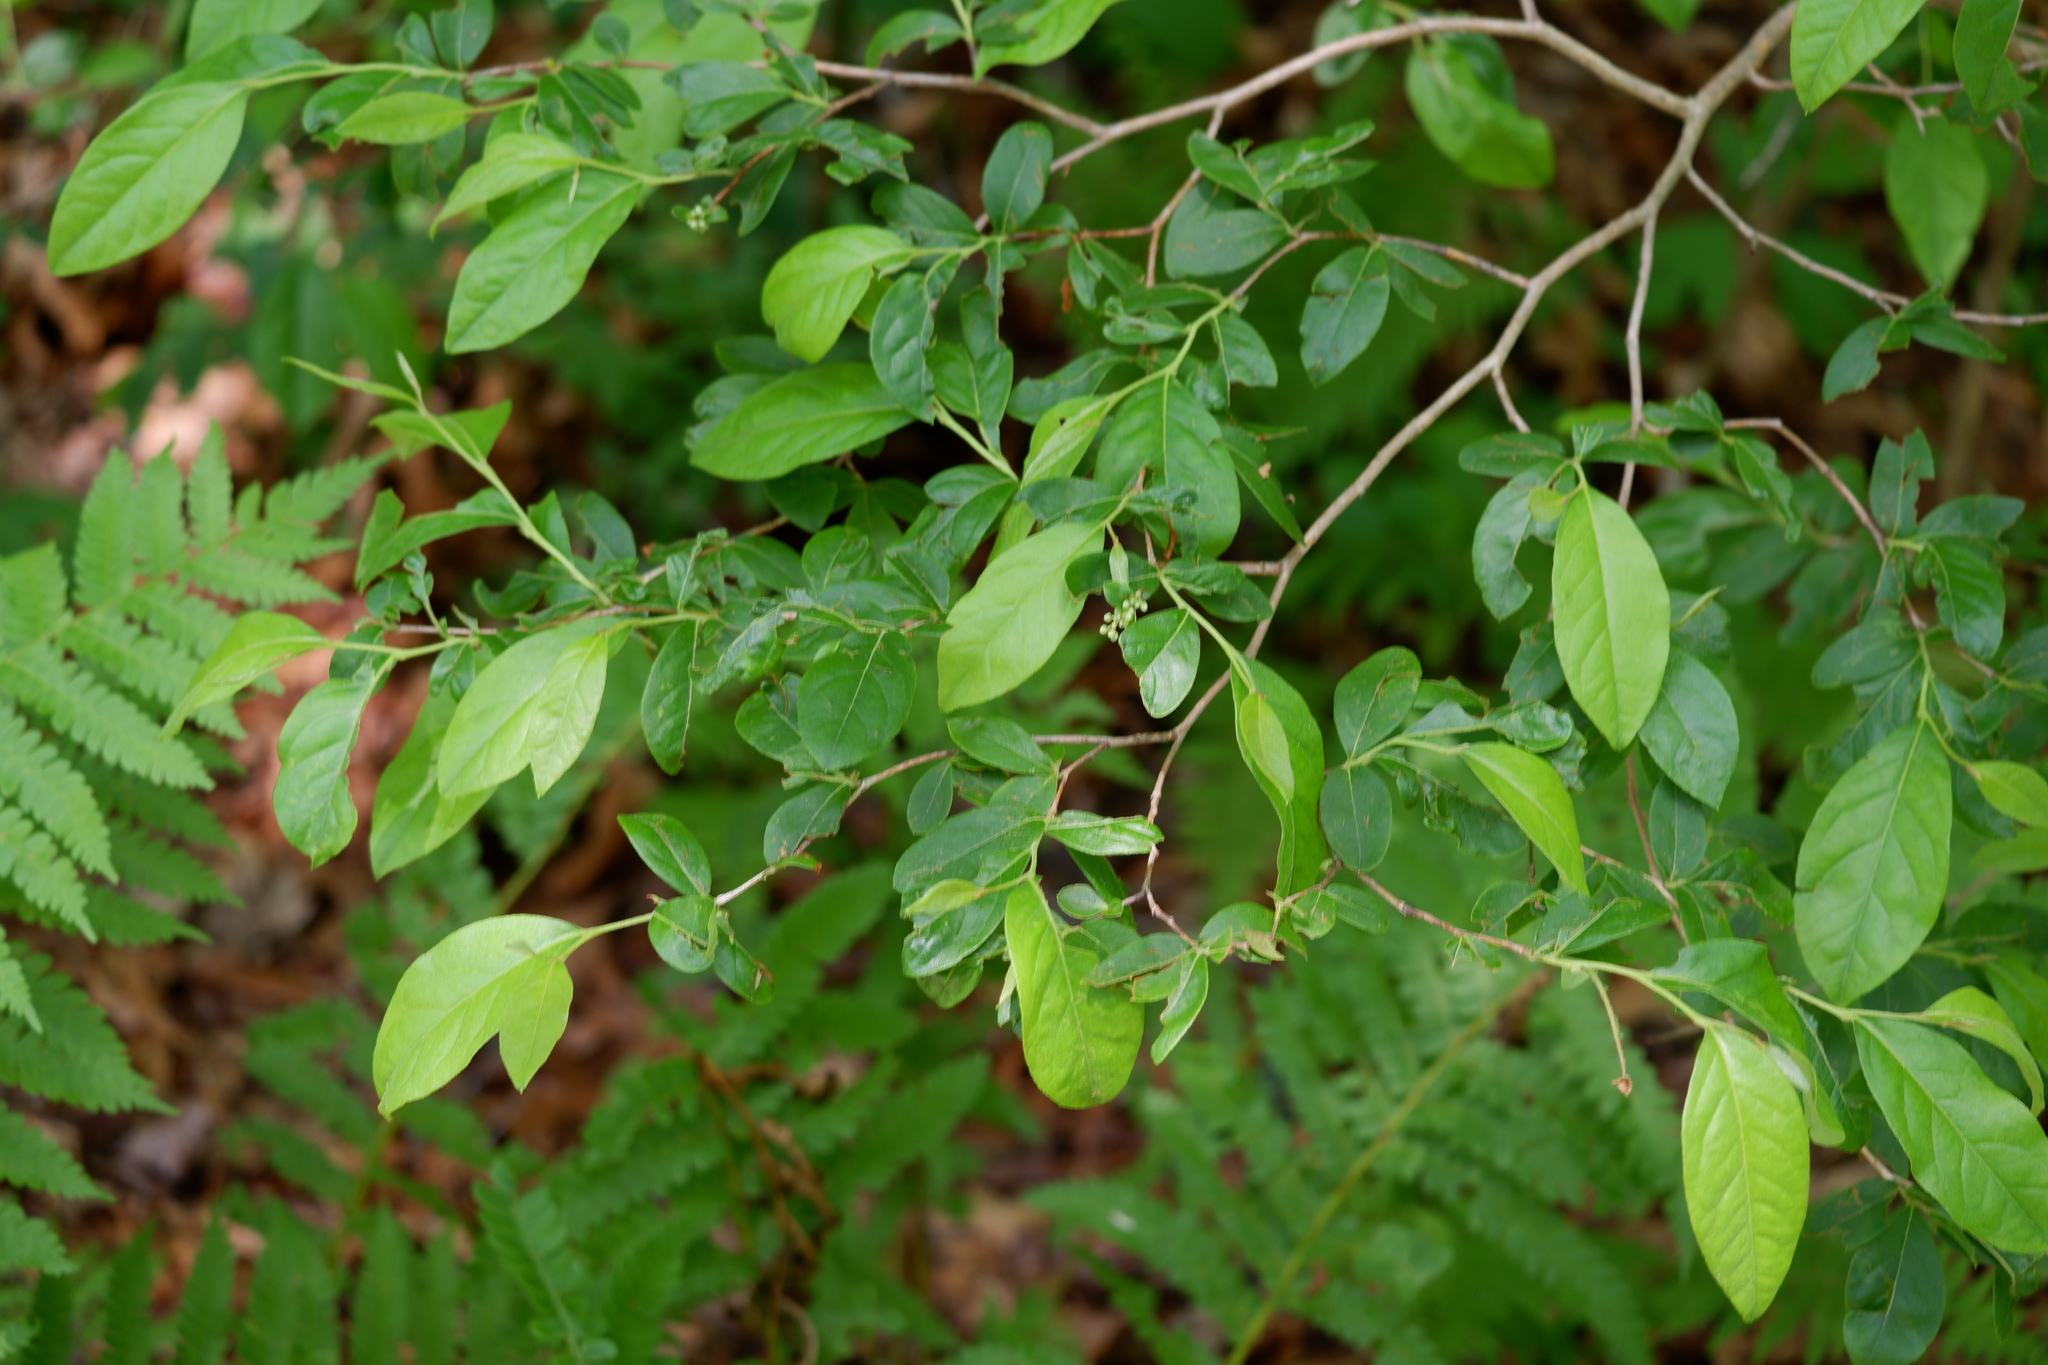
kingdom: Plantae
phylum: Tracheophyta
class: Magnoliopsida
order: Ericales
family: Ericaceae
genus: Lyonia
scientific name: Lyonia ligustrina
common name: Maleberry
